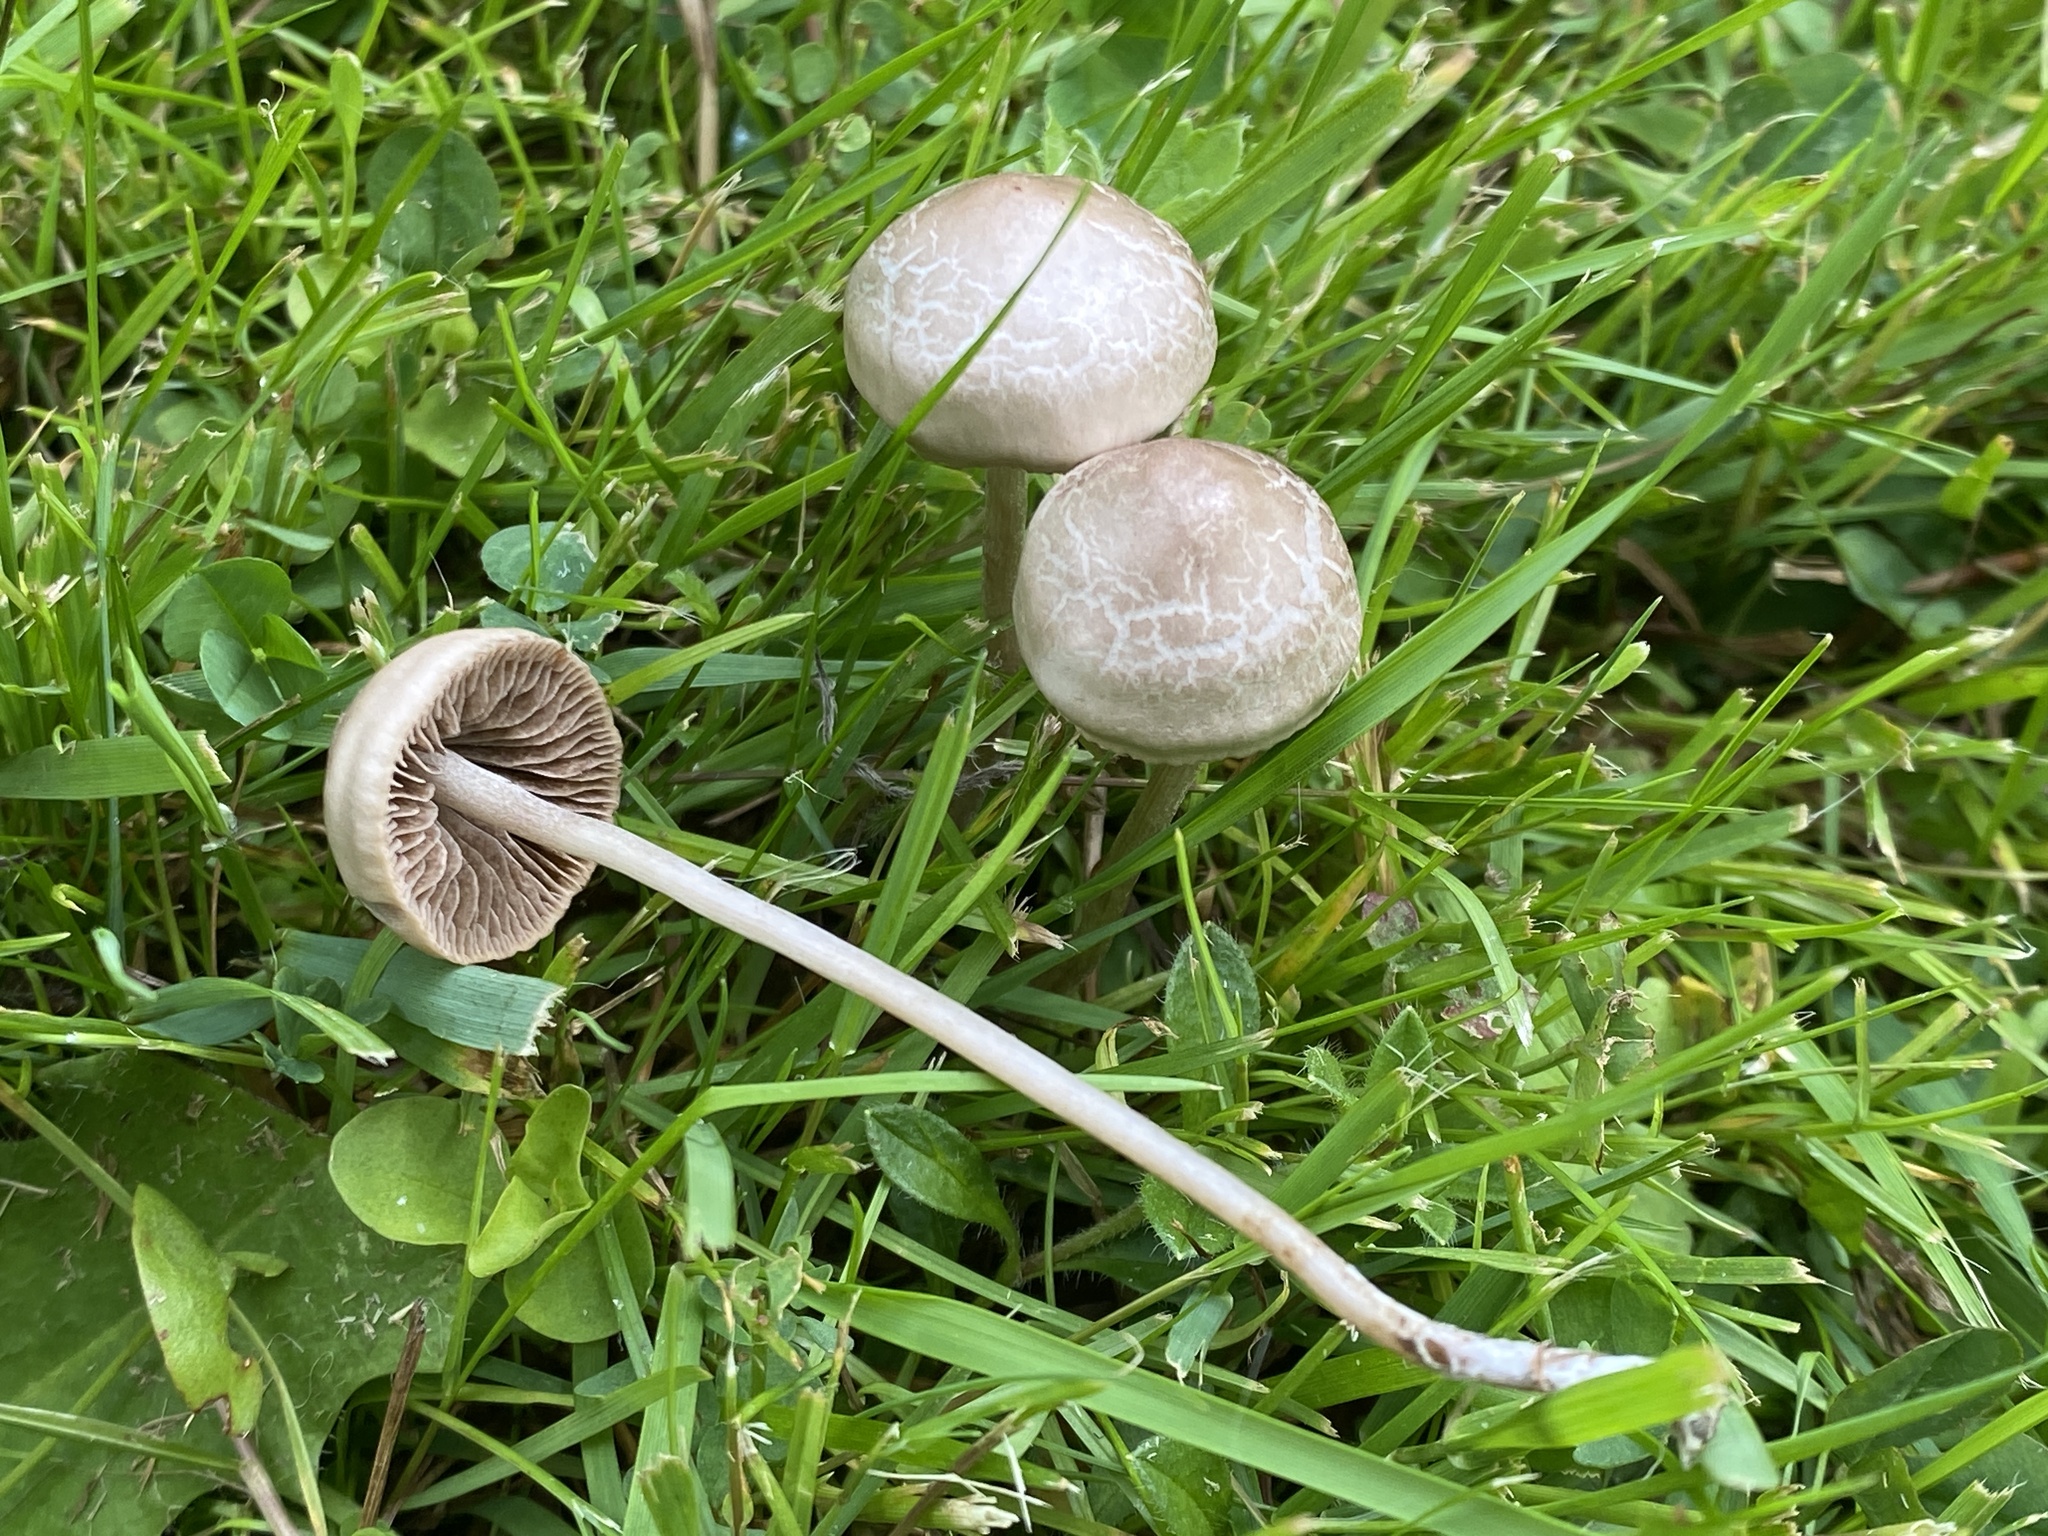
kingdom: Fungi
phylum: Basidiomycota
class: Agaricomycetes
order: Agaricales
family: Bolbitiaceae
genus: Panaeolina
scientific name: Panaeolina foenisecii
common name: Brown hay cap
